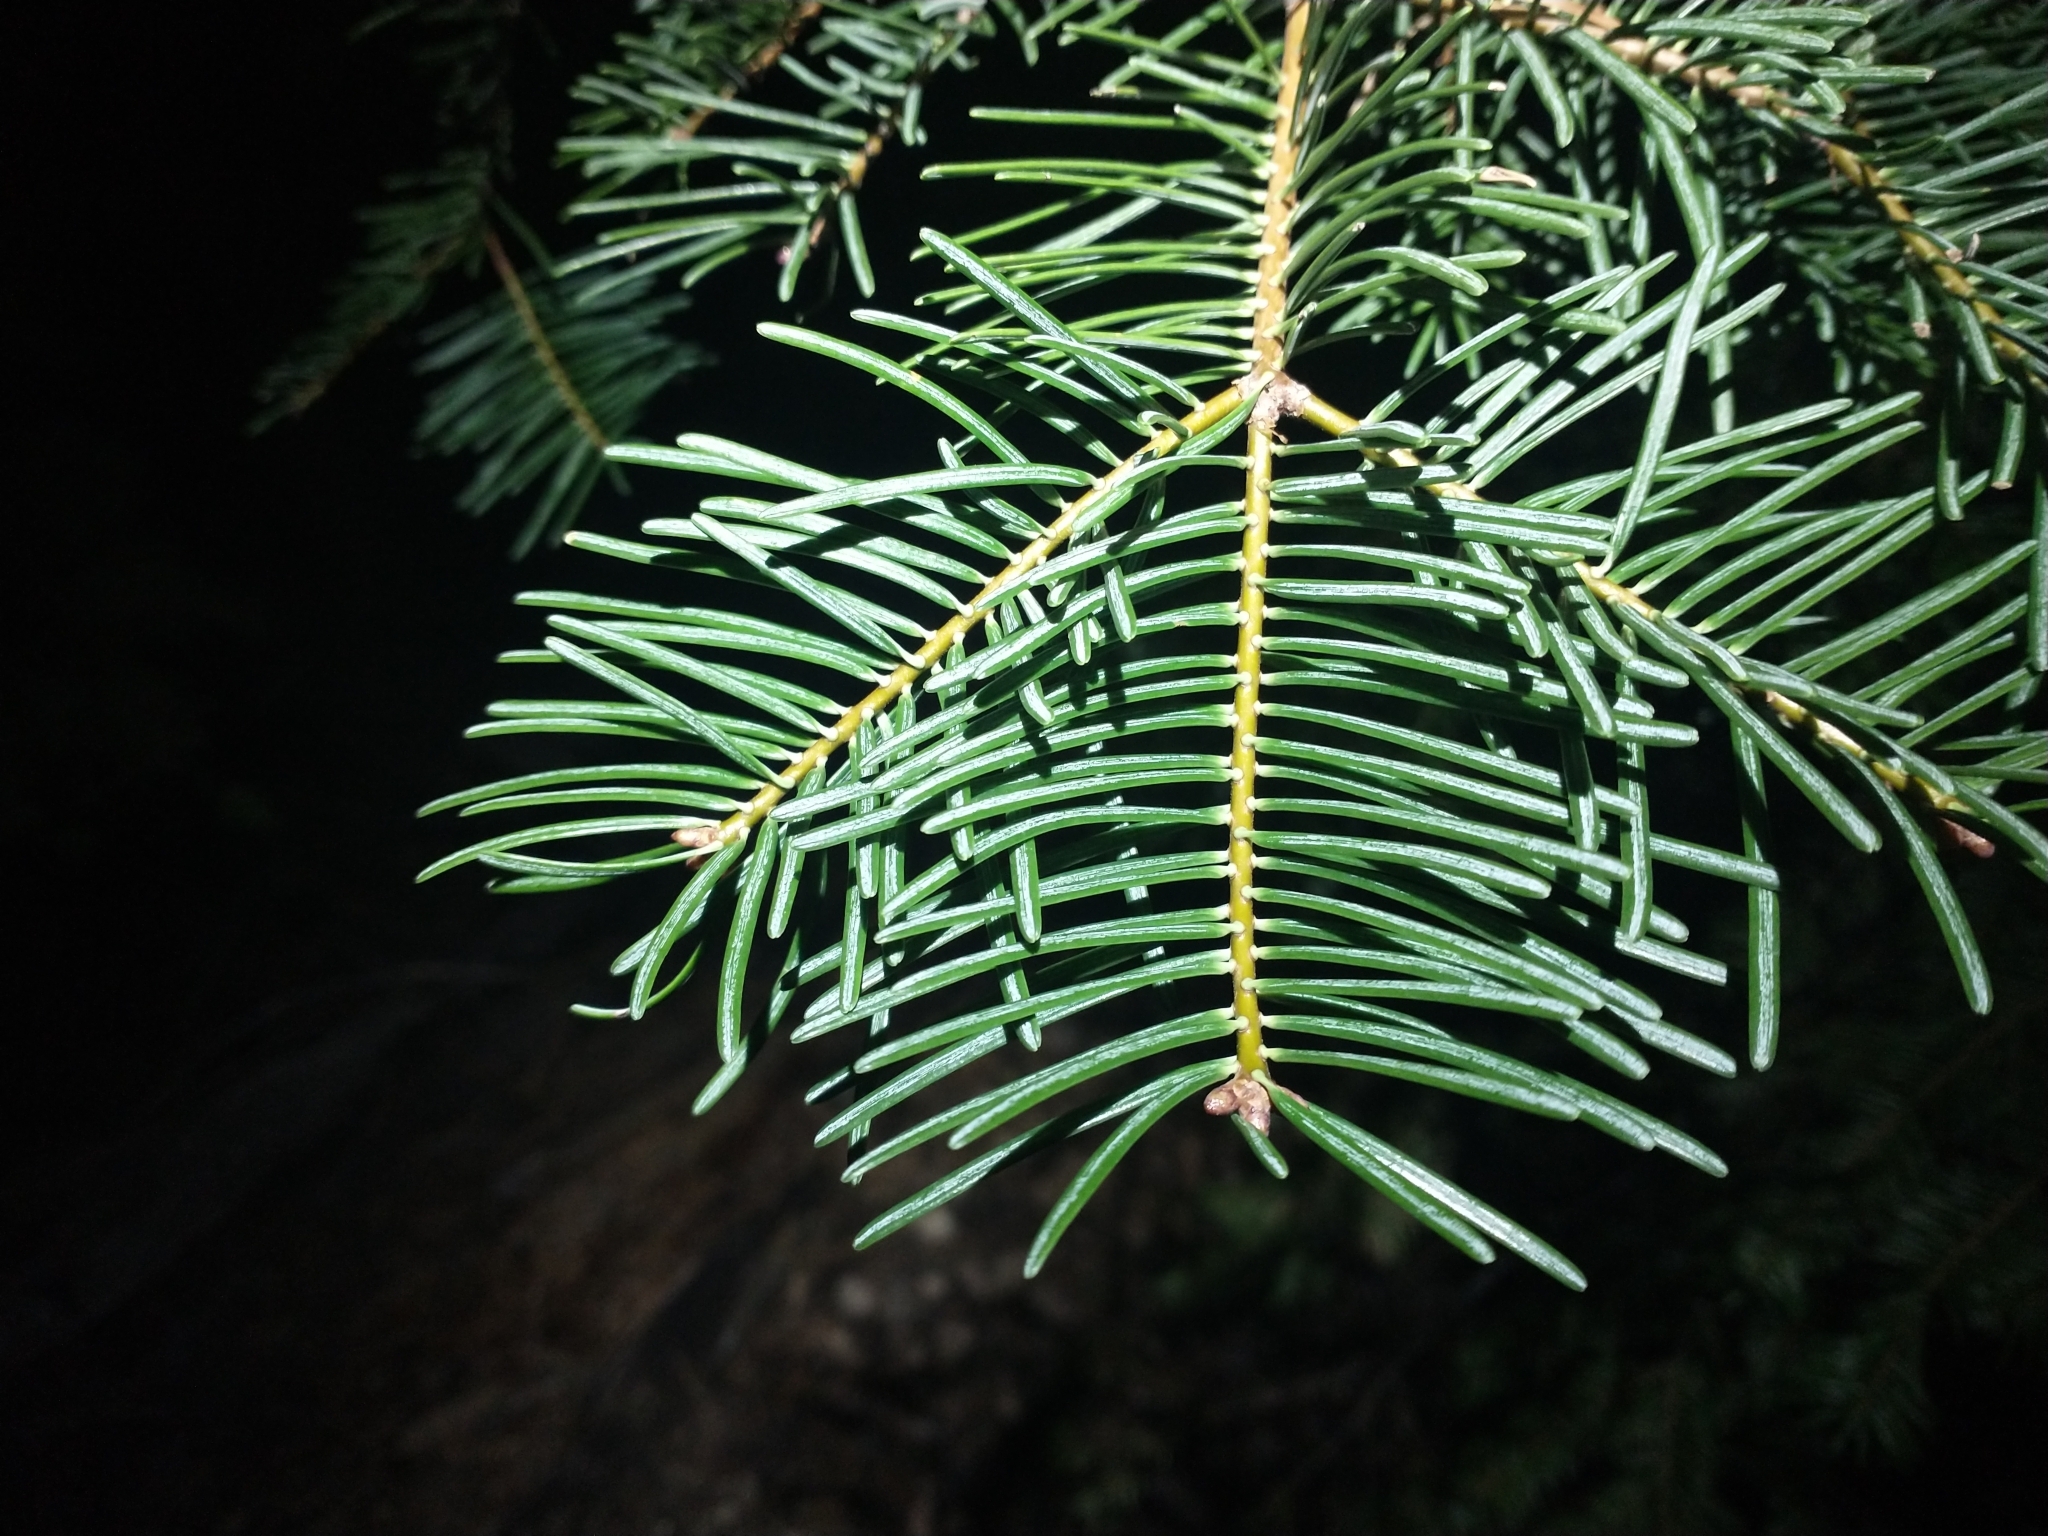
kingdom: Plantae
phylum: Tracheophyta
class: Pinopsida
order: Pinales
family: Pinaceae
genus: Abies
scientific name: Abies concolor
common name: Colorado fir
